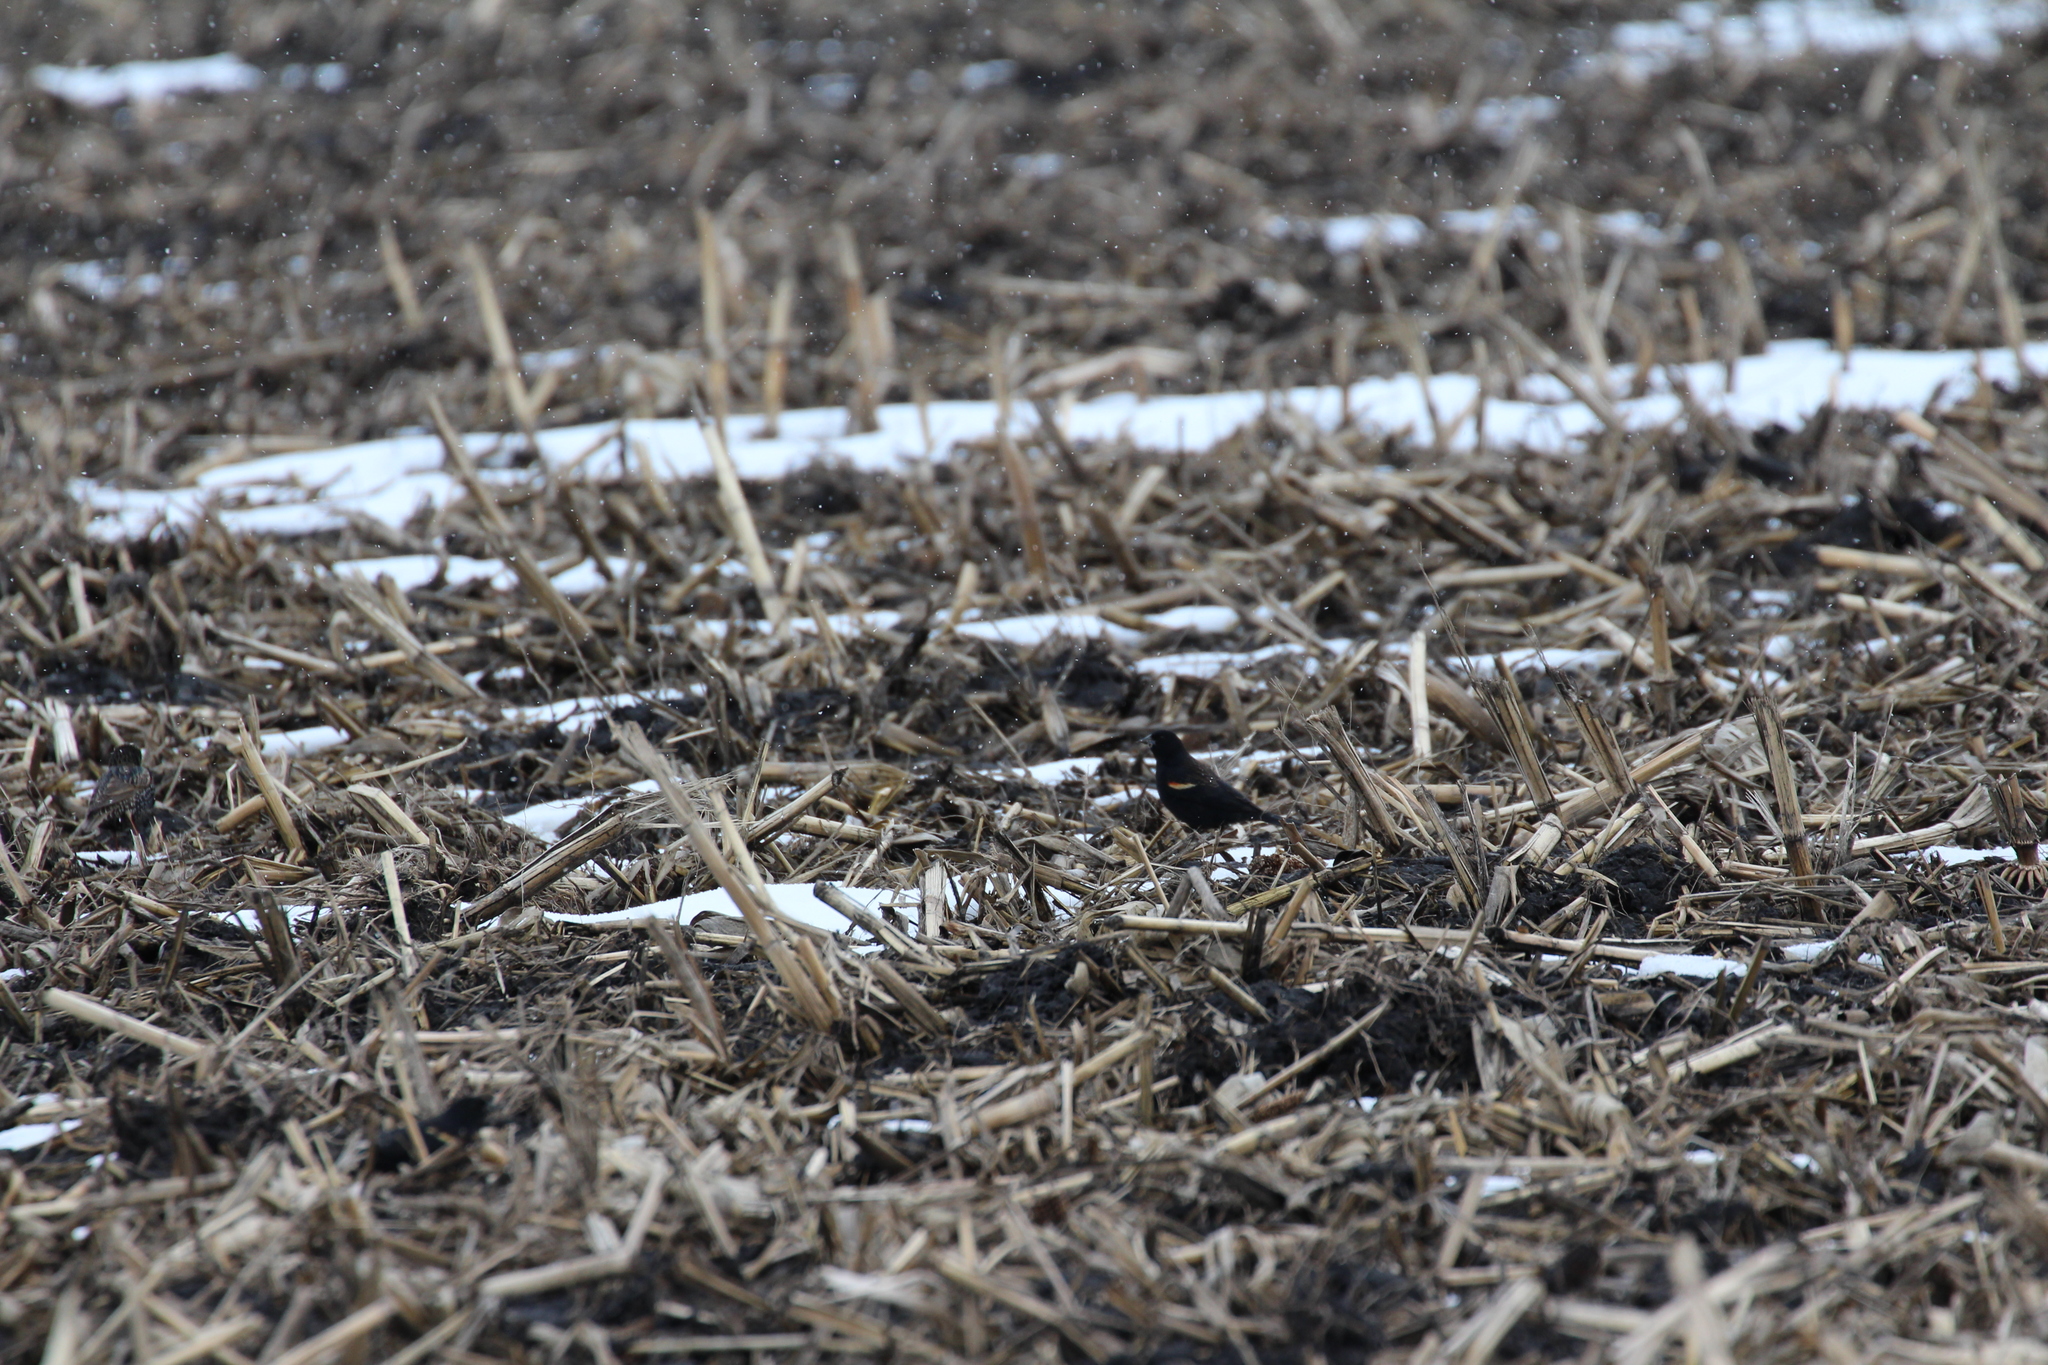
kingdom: Animalia
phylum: Chordata
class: Aves
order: Passeriformes
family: Icteridae
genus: Agelaius
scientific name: Agelaius phoeniceus
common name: Red-winged blackbird
